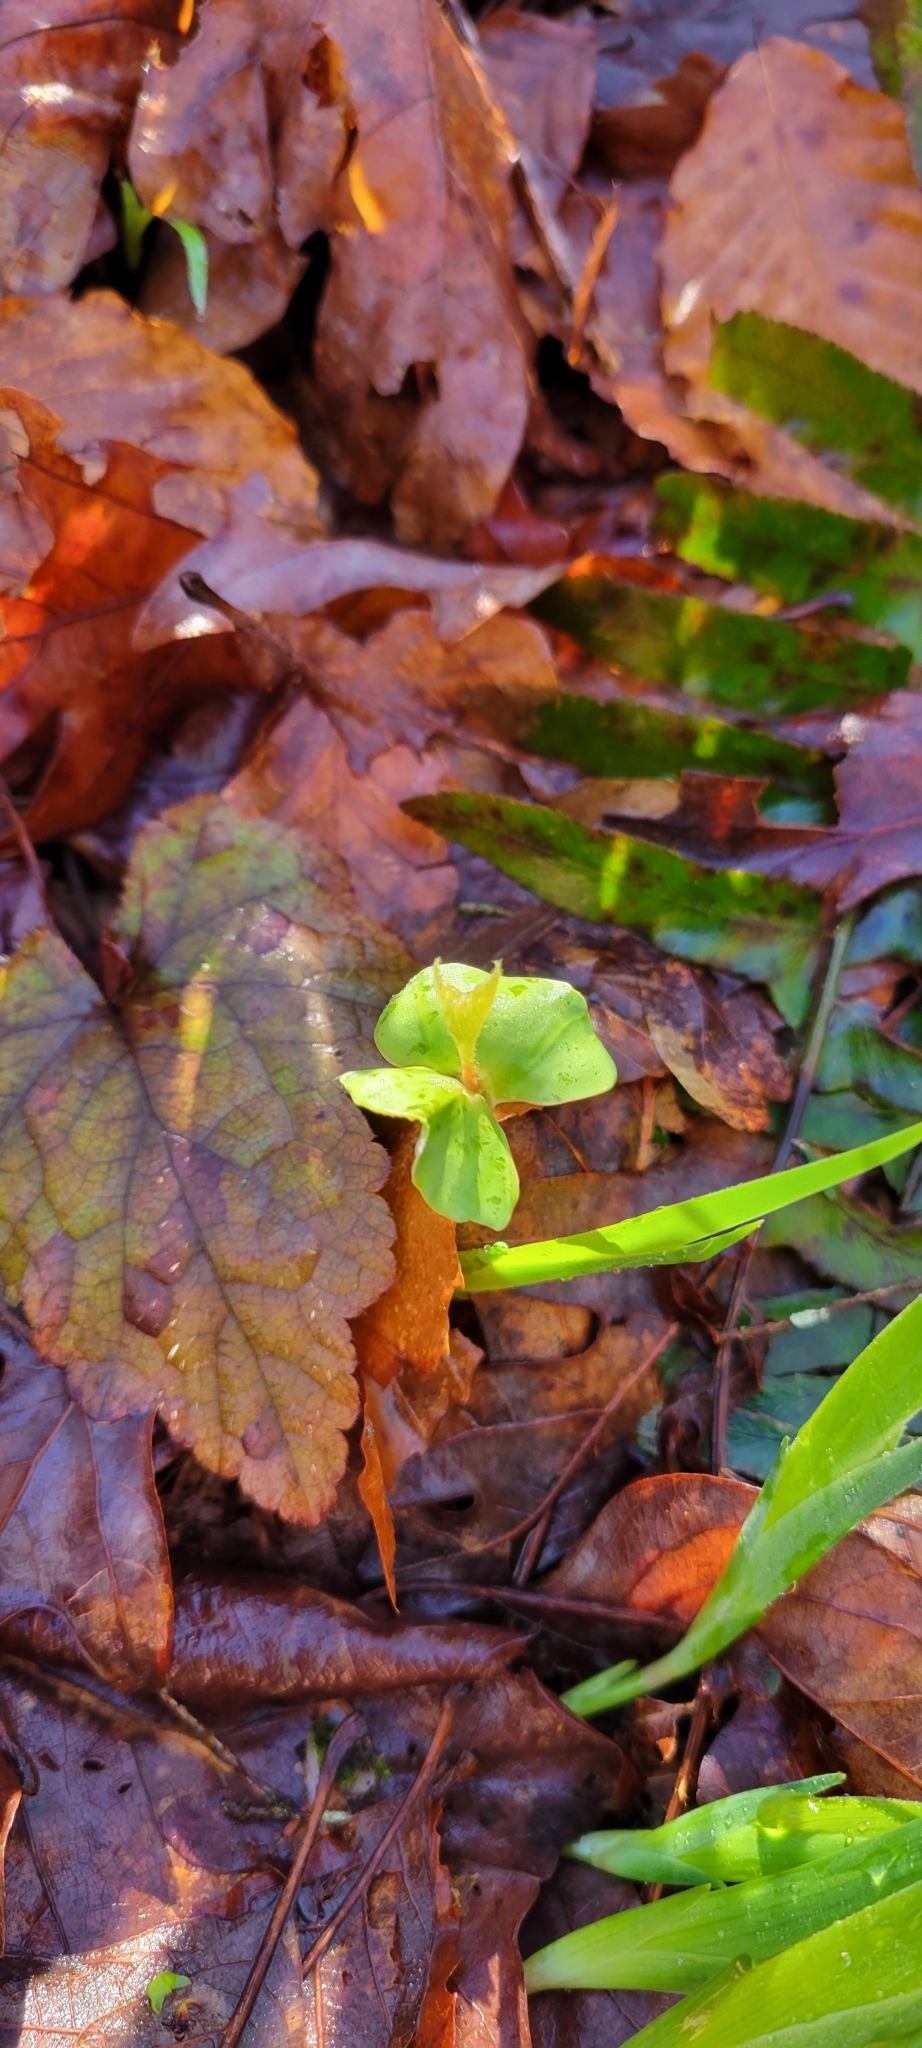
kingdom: Plantae
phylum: Tracheophyta
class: Magnoliopsida
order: Fagales
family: Fagaceae
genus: Fagus
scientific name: Fagus grandifolia
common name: American beech
